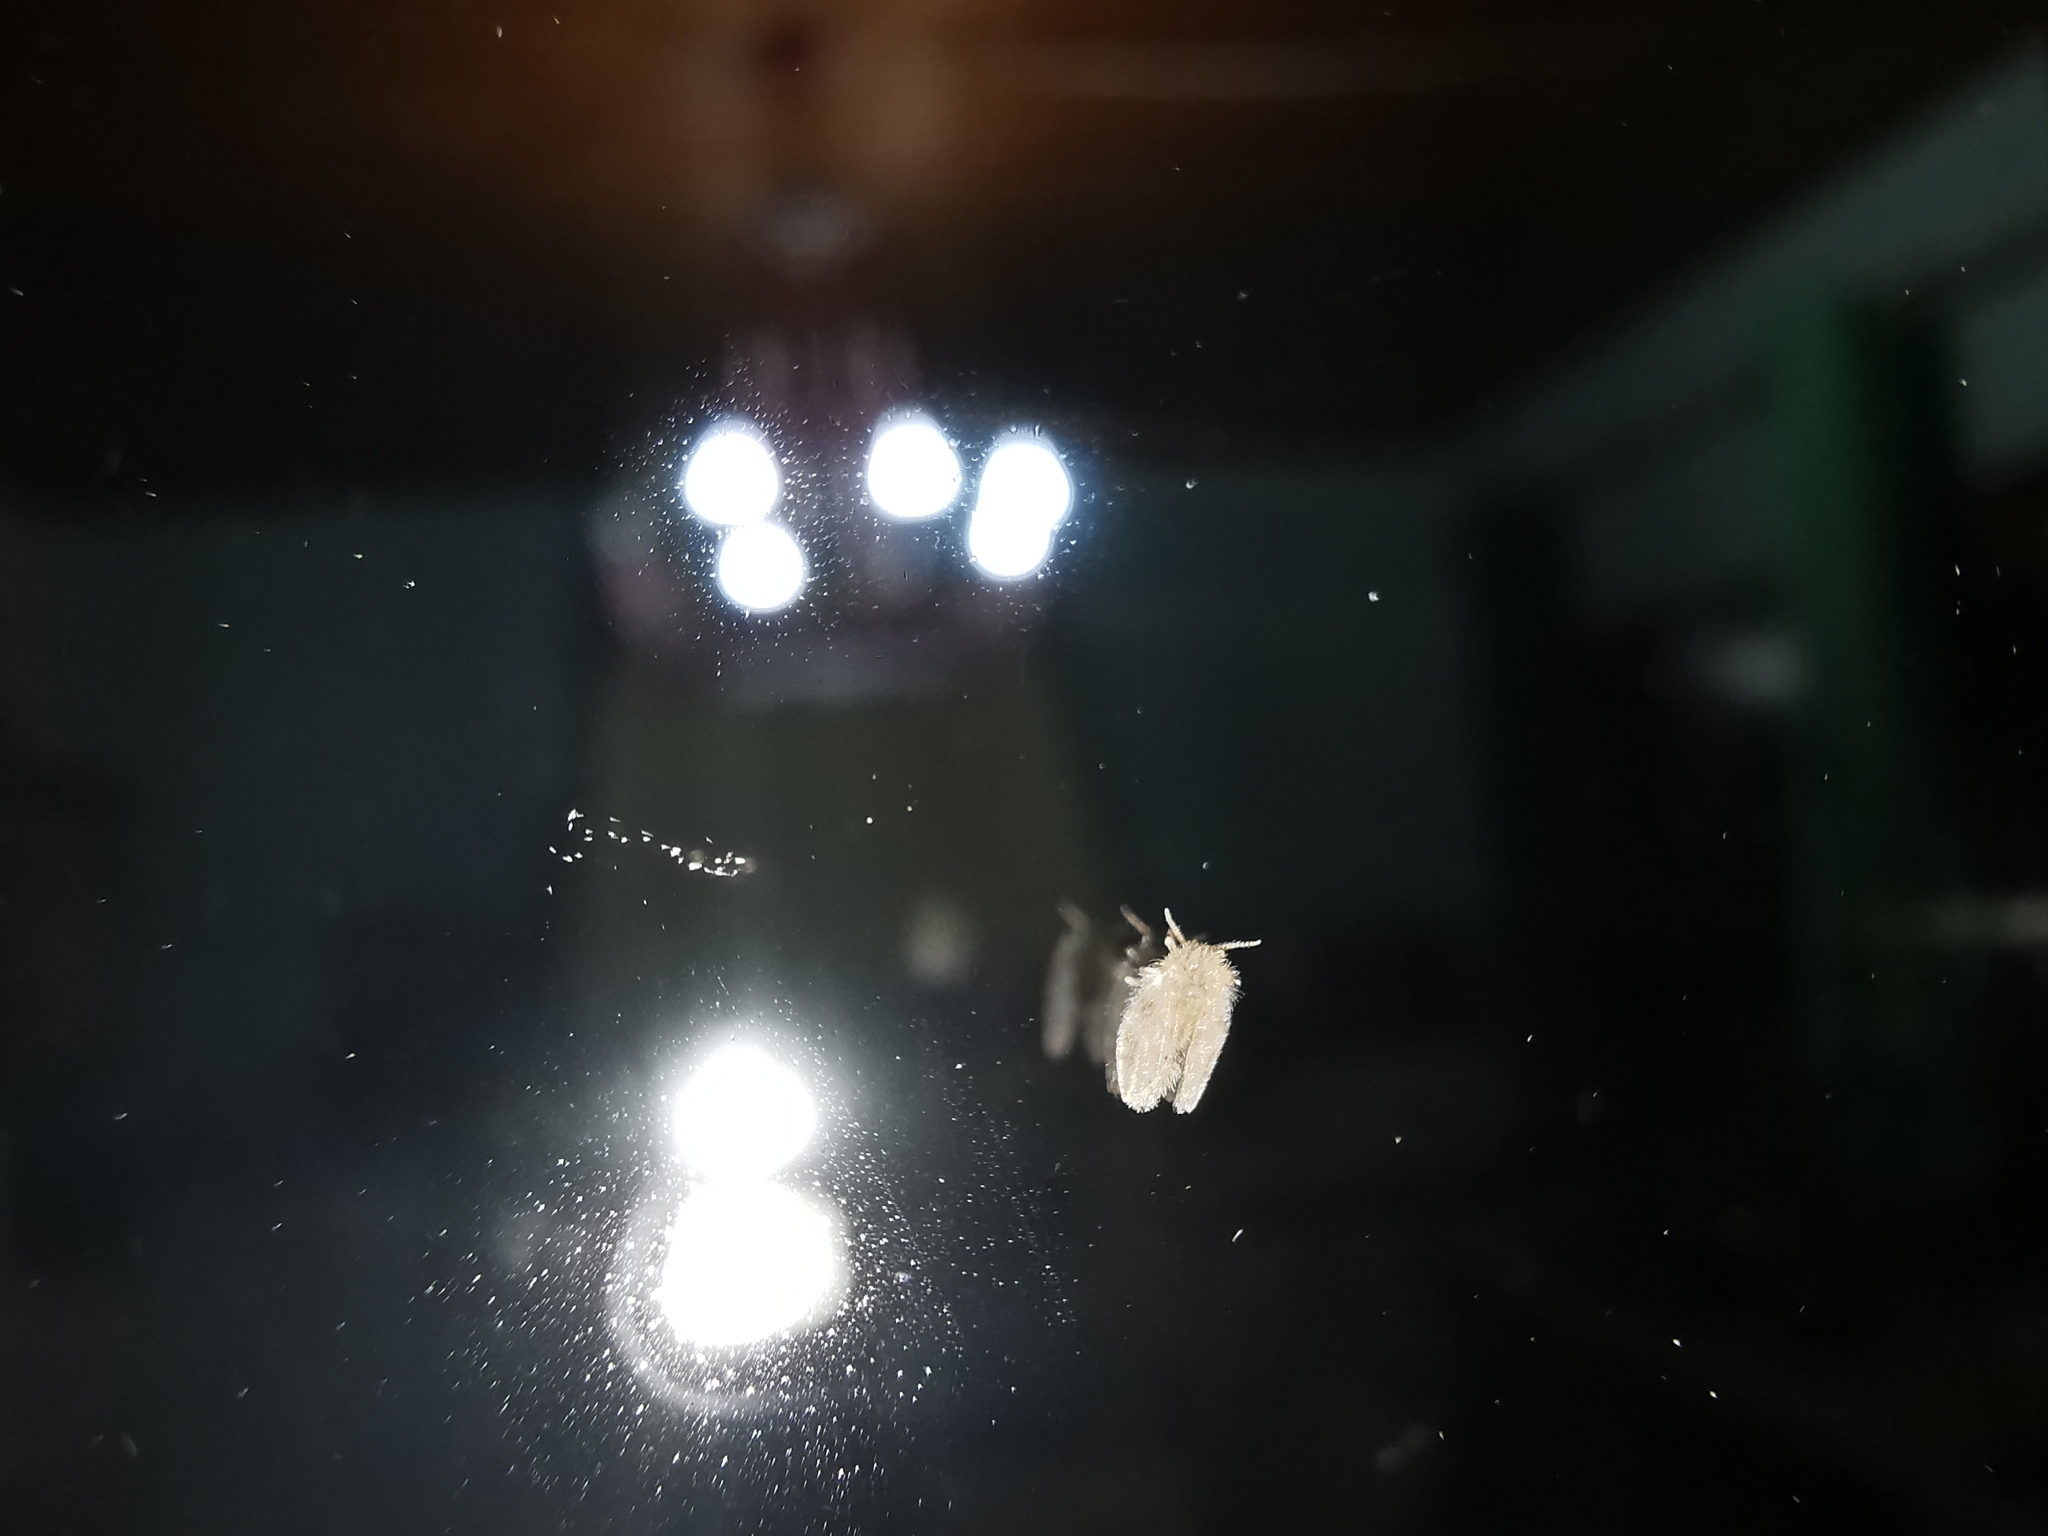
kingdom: Animalia
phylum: Arthropoda
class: Insecta
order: Diptera
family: Psychodidae
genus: Clogmia
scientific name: Clogmia albipunctatus
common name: White-spotted moth fly
